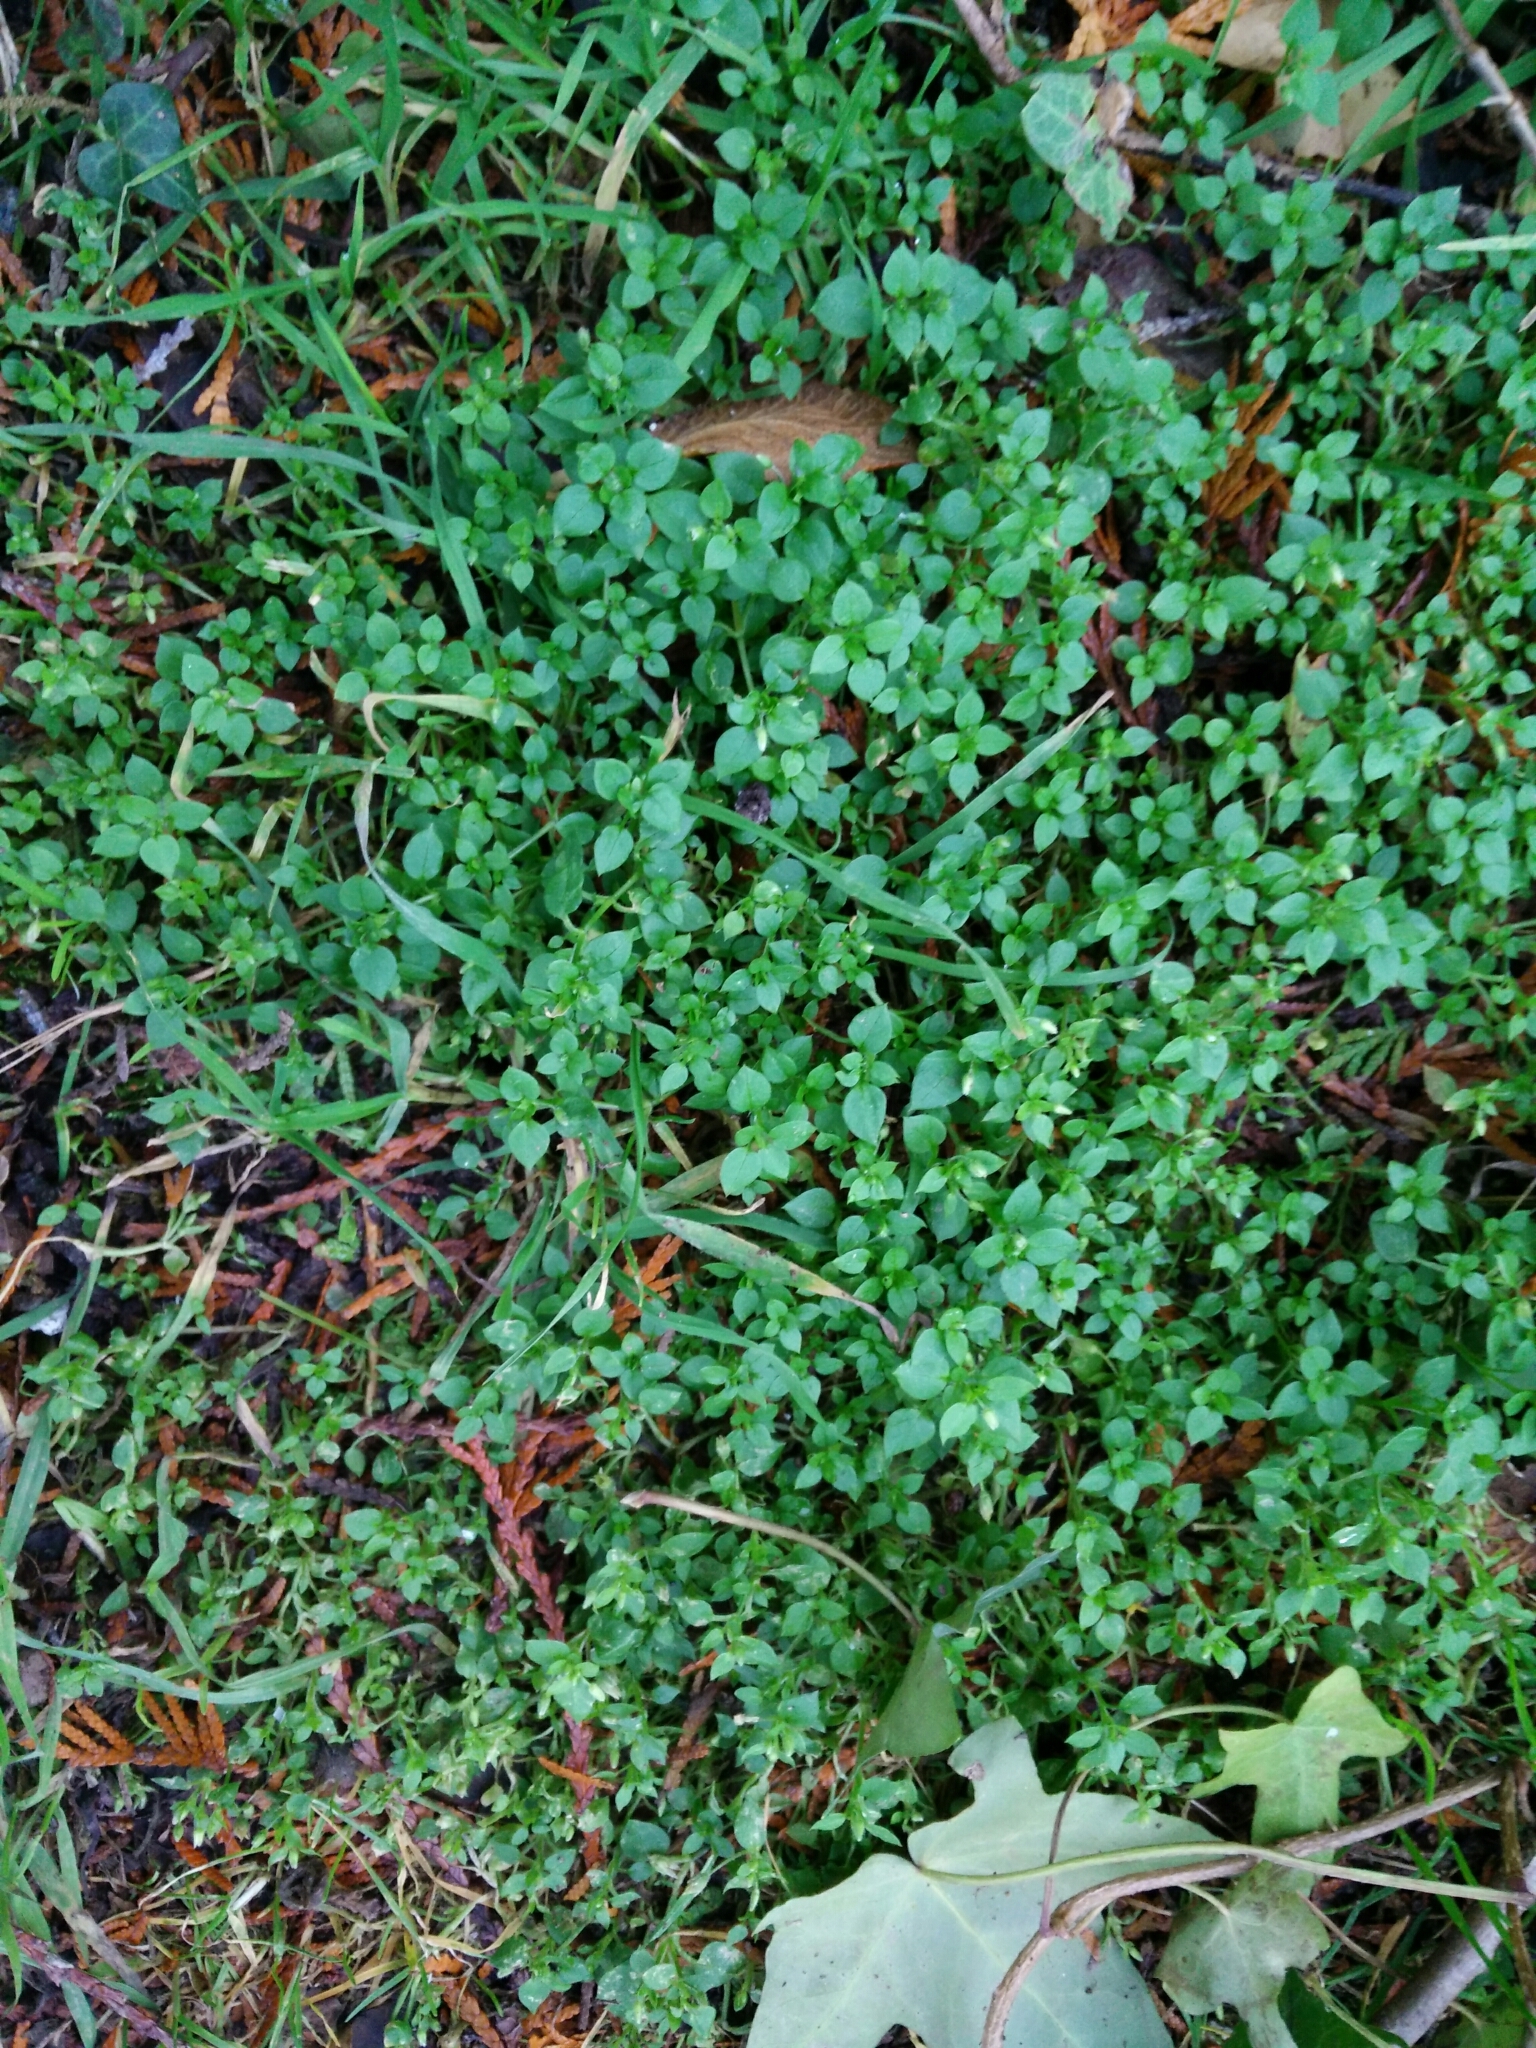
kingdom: Plantae
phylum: Tracheophyta
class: Magnoliopsida
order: Caryophyllales
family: Caryophyllaceae
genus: Stellaria
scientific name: Stellaria media
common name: Common chickweed
